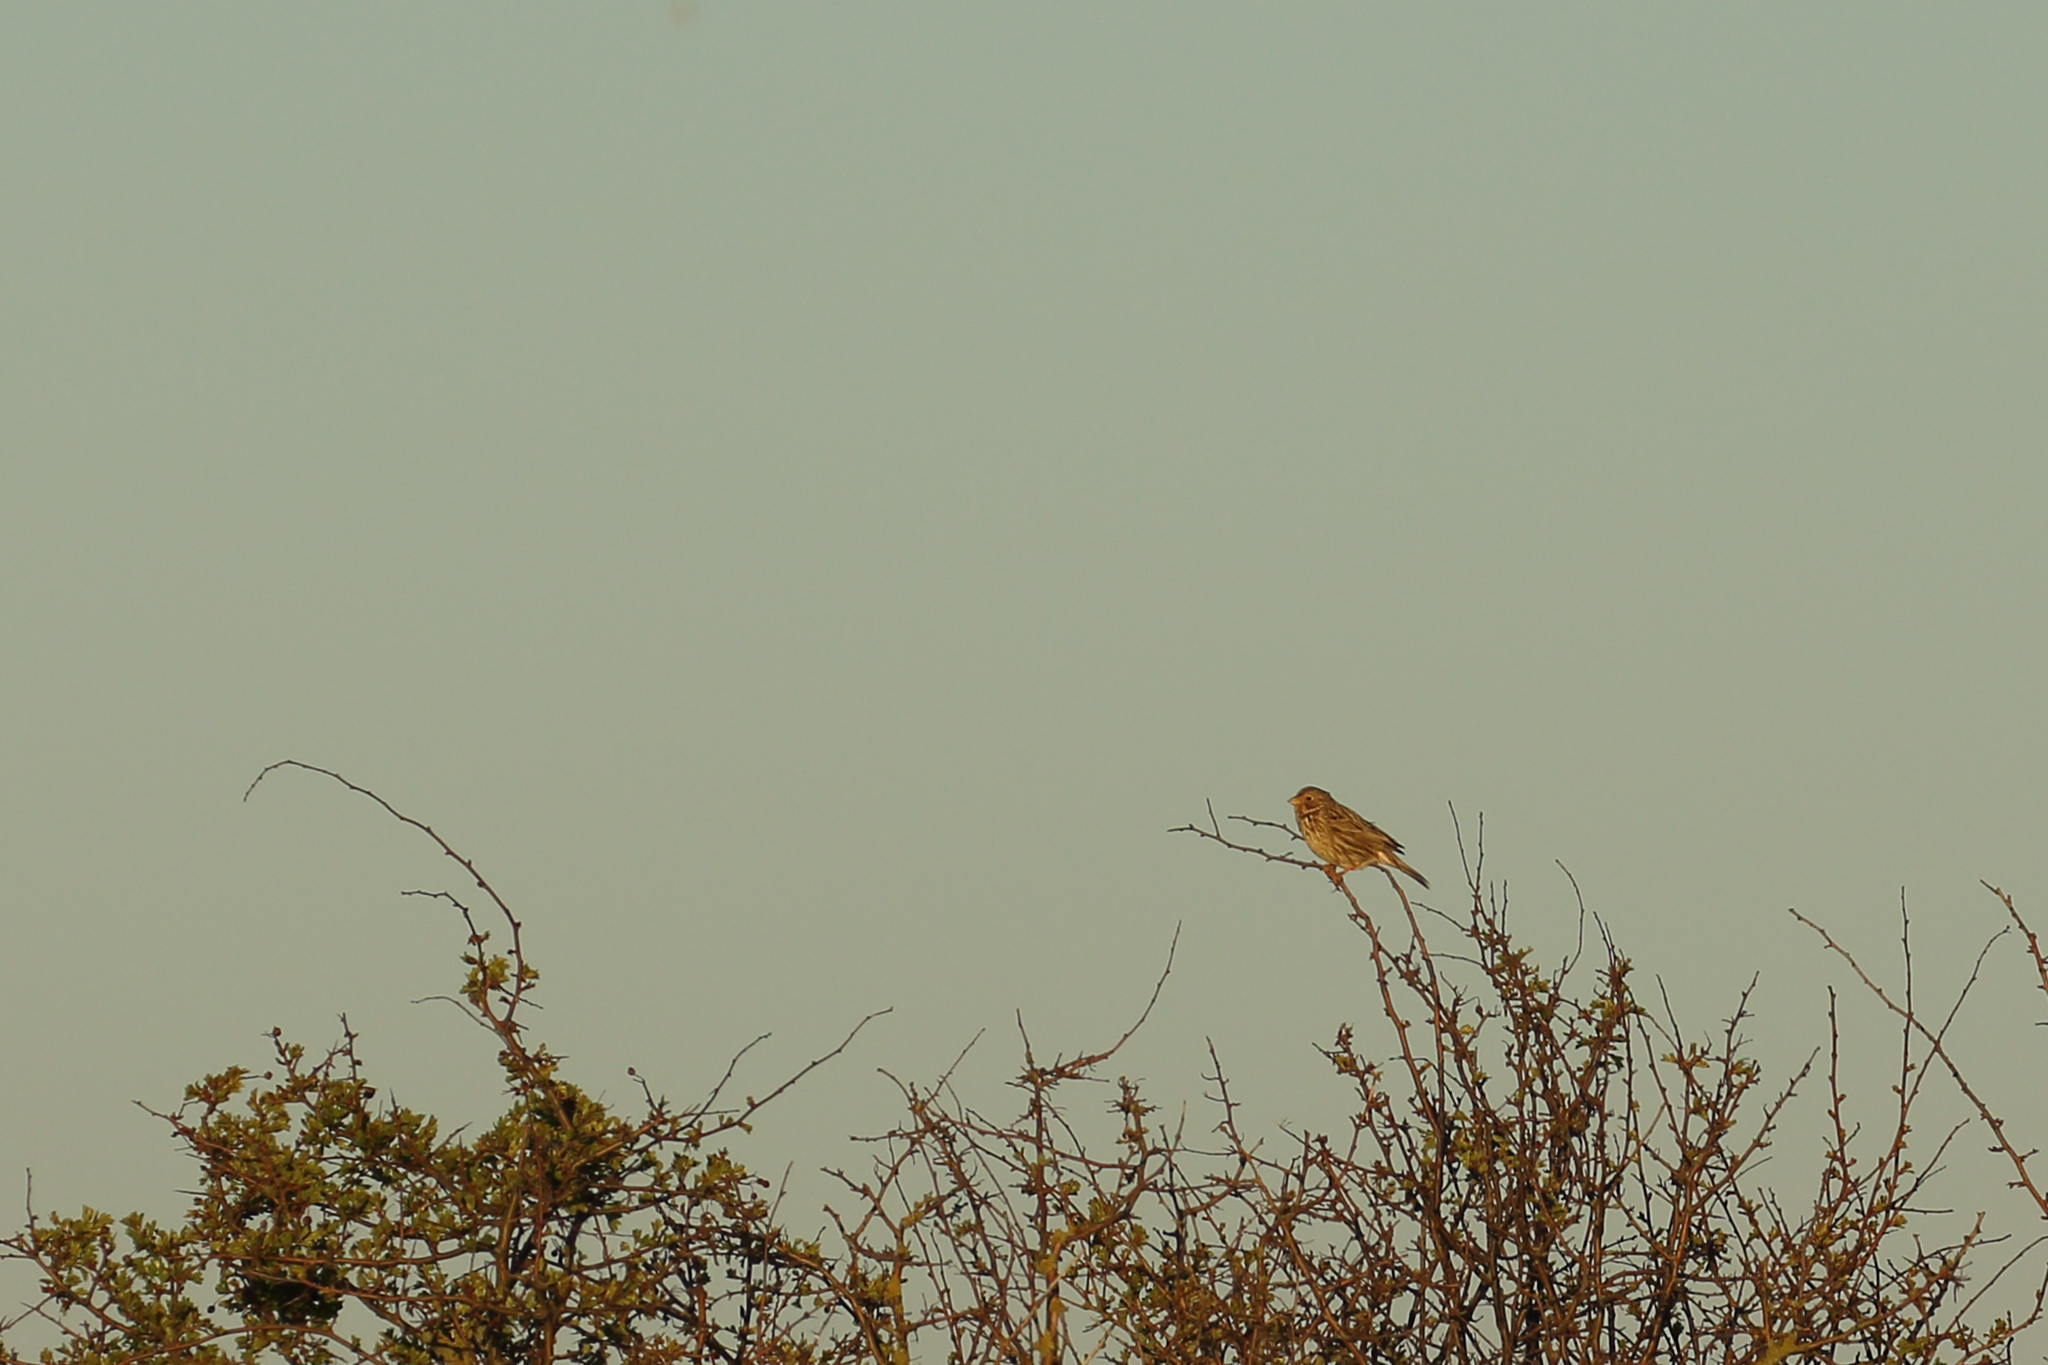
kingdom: Animalia
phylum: Chordata
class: Aves
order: Passeriformes
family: Emberizidae
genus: Emberiza
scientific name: Emberiza calandra
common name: Corn bunting
